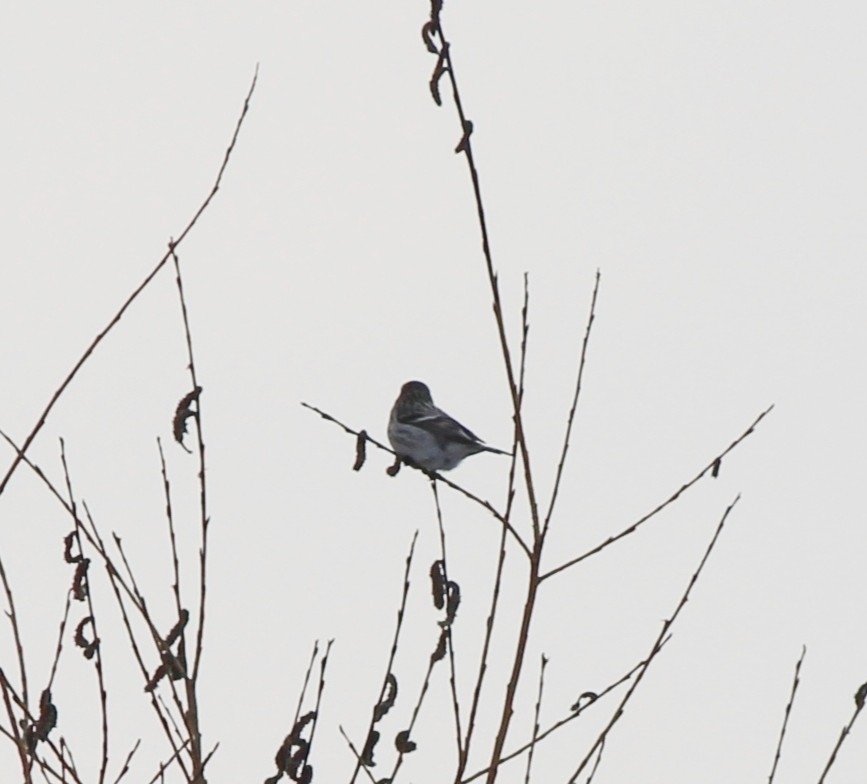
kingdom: Animalia
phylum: Chordata
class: Aves
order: Passeriformes
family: Fringillidae
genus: Acanthis
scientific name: Acanthis flammea
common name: Common redpoll
